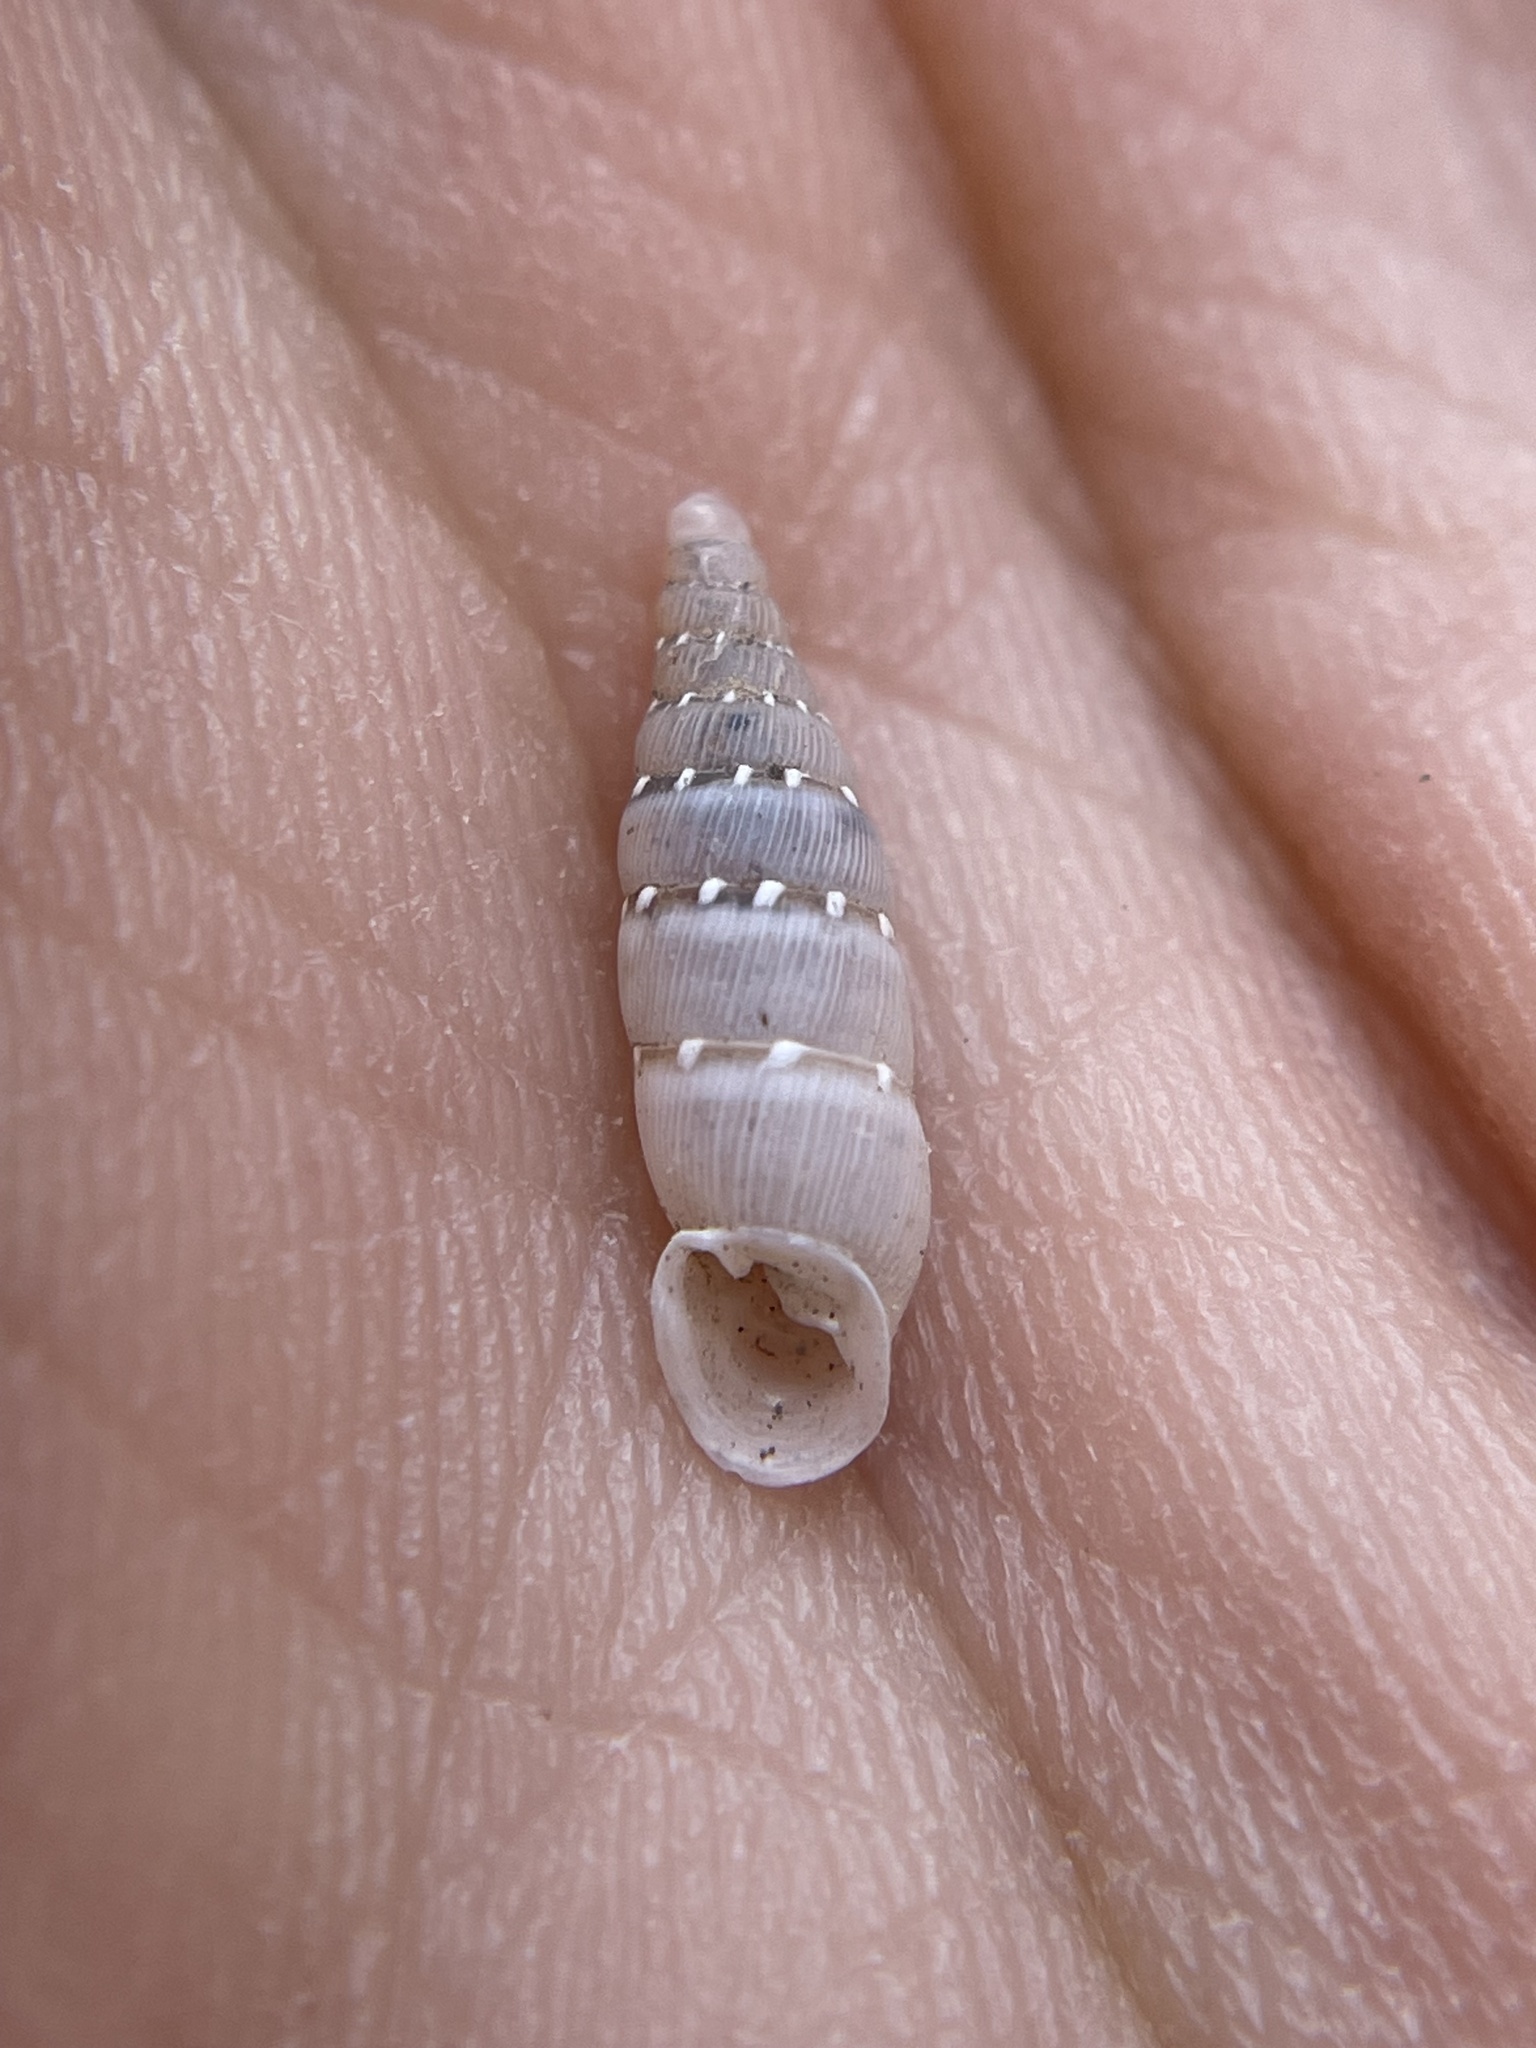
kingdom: Animalia
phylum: Mollusca
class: Gastropoda
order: Stylommatophora
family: Clausiliidae
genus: Papillifera
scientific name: Papillifera papillaris
